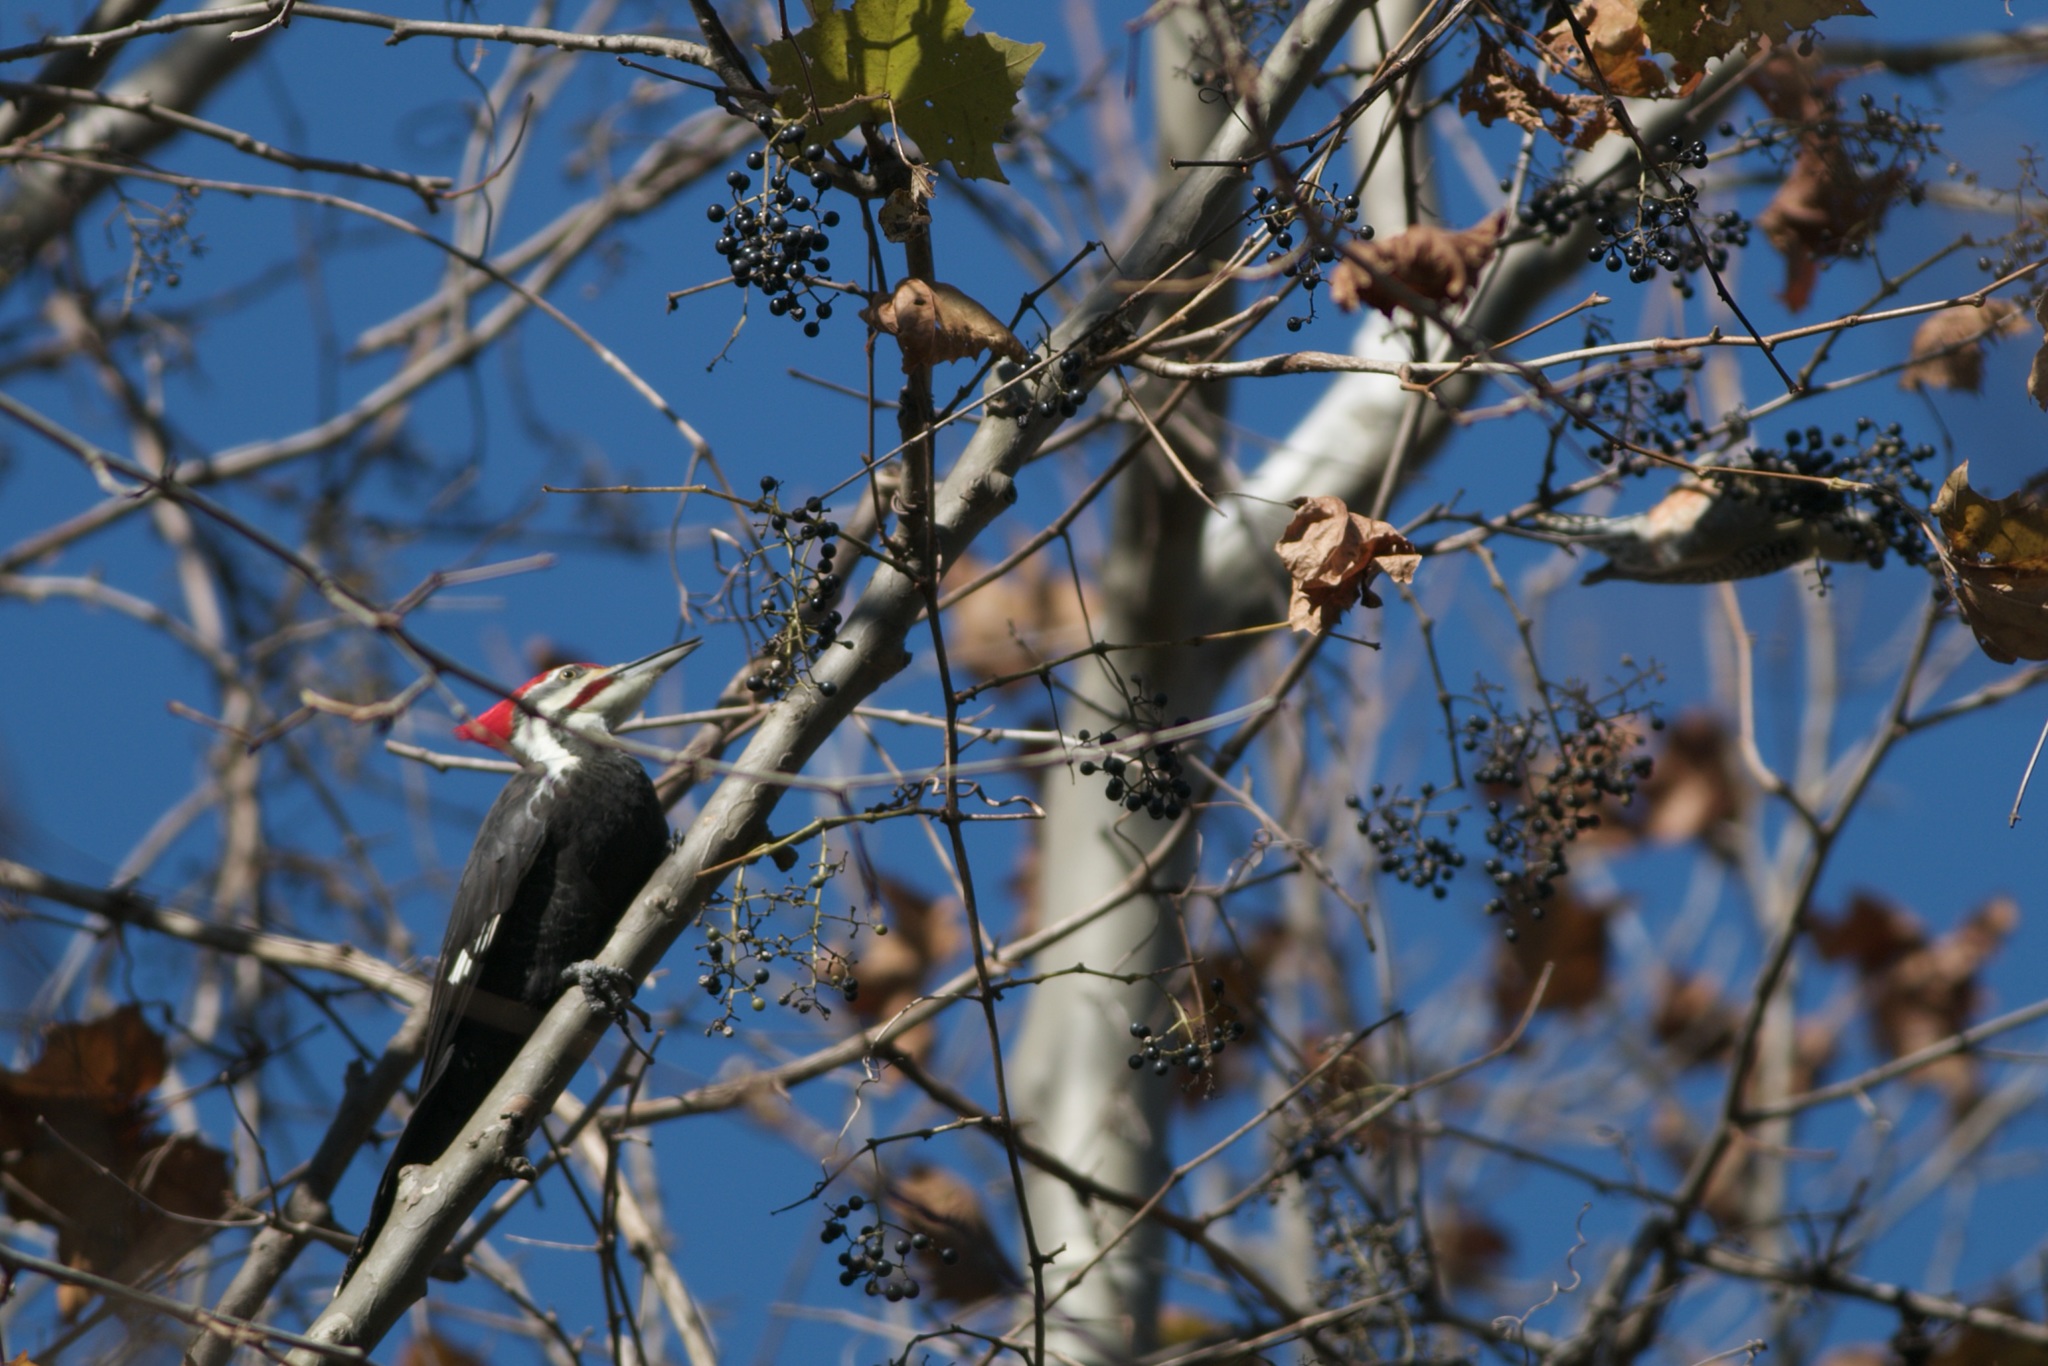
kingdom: Animalia
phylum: Chordata
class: Aves
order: Piciformes
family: Picidae
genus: Melanerpes
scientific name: Melanerpes carolinus
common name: Red-bellied woodpecker
